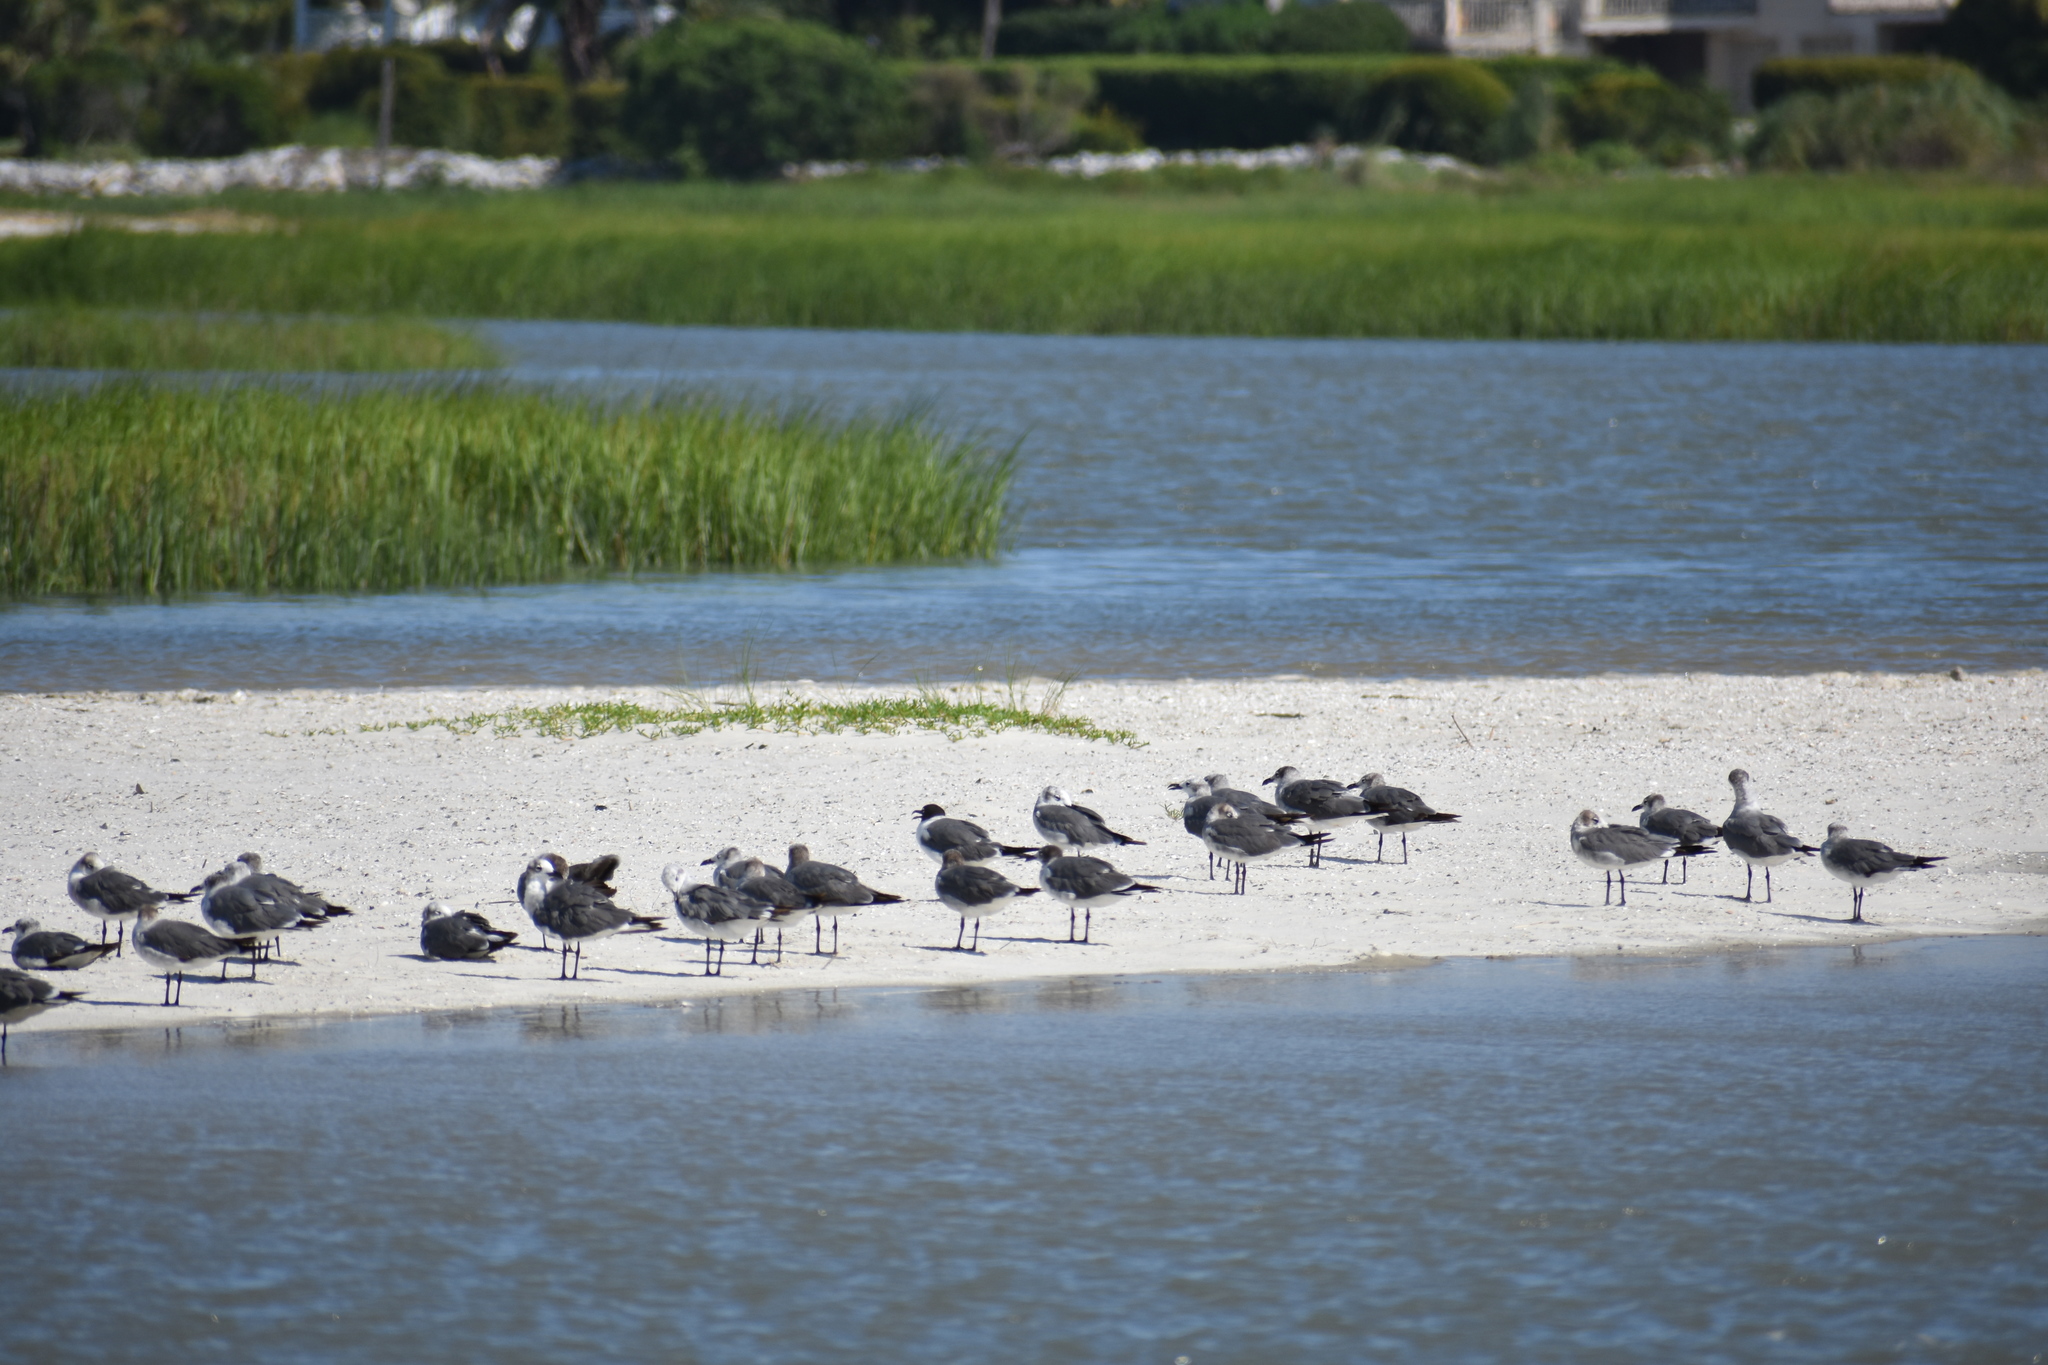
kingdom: Animalia
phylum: Chordata
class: Aves
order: Charadriiformes
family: Laridae
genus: Leucophaeus
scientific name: Leucophaeus atricilla
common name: Laughing gull
